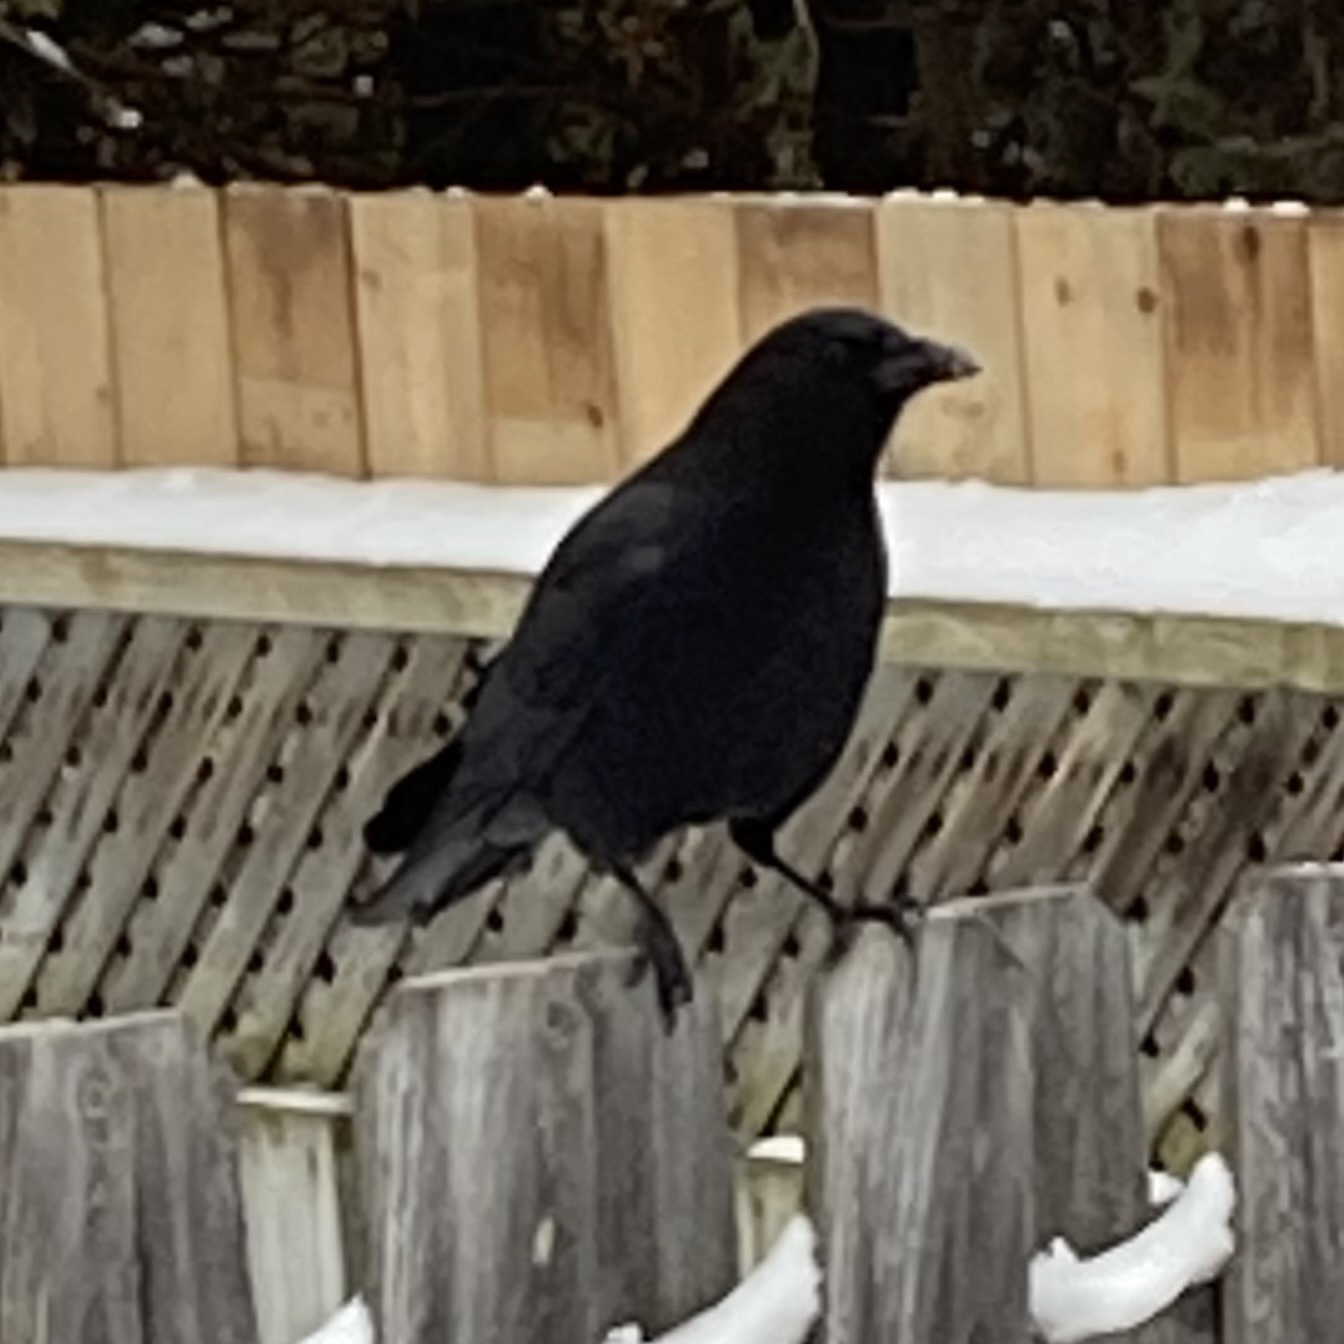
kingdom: Animalia
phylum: Chordata
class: Aves
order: Passeriformes
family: Corvidae
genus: Corvus
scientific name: Corvus brachyrhynchos
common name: American crow
